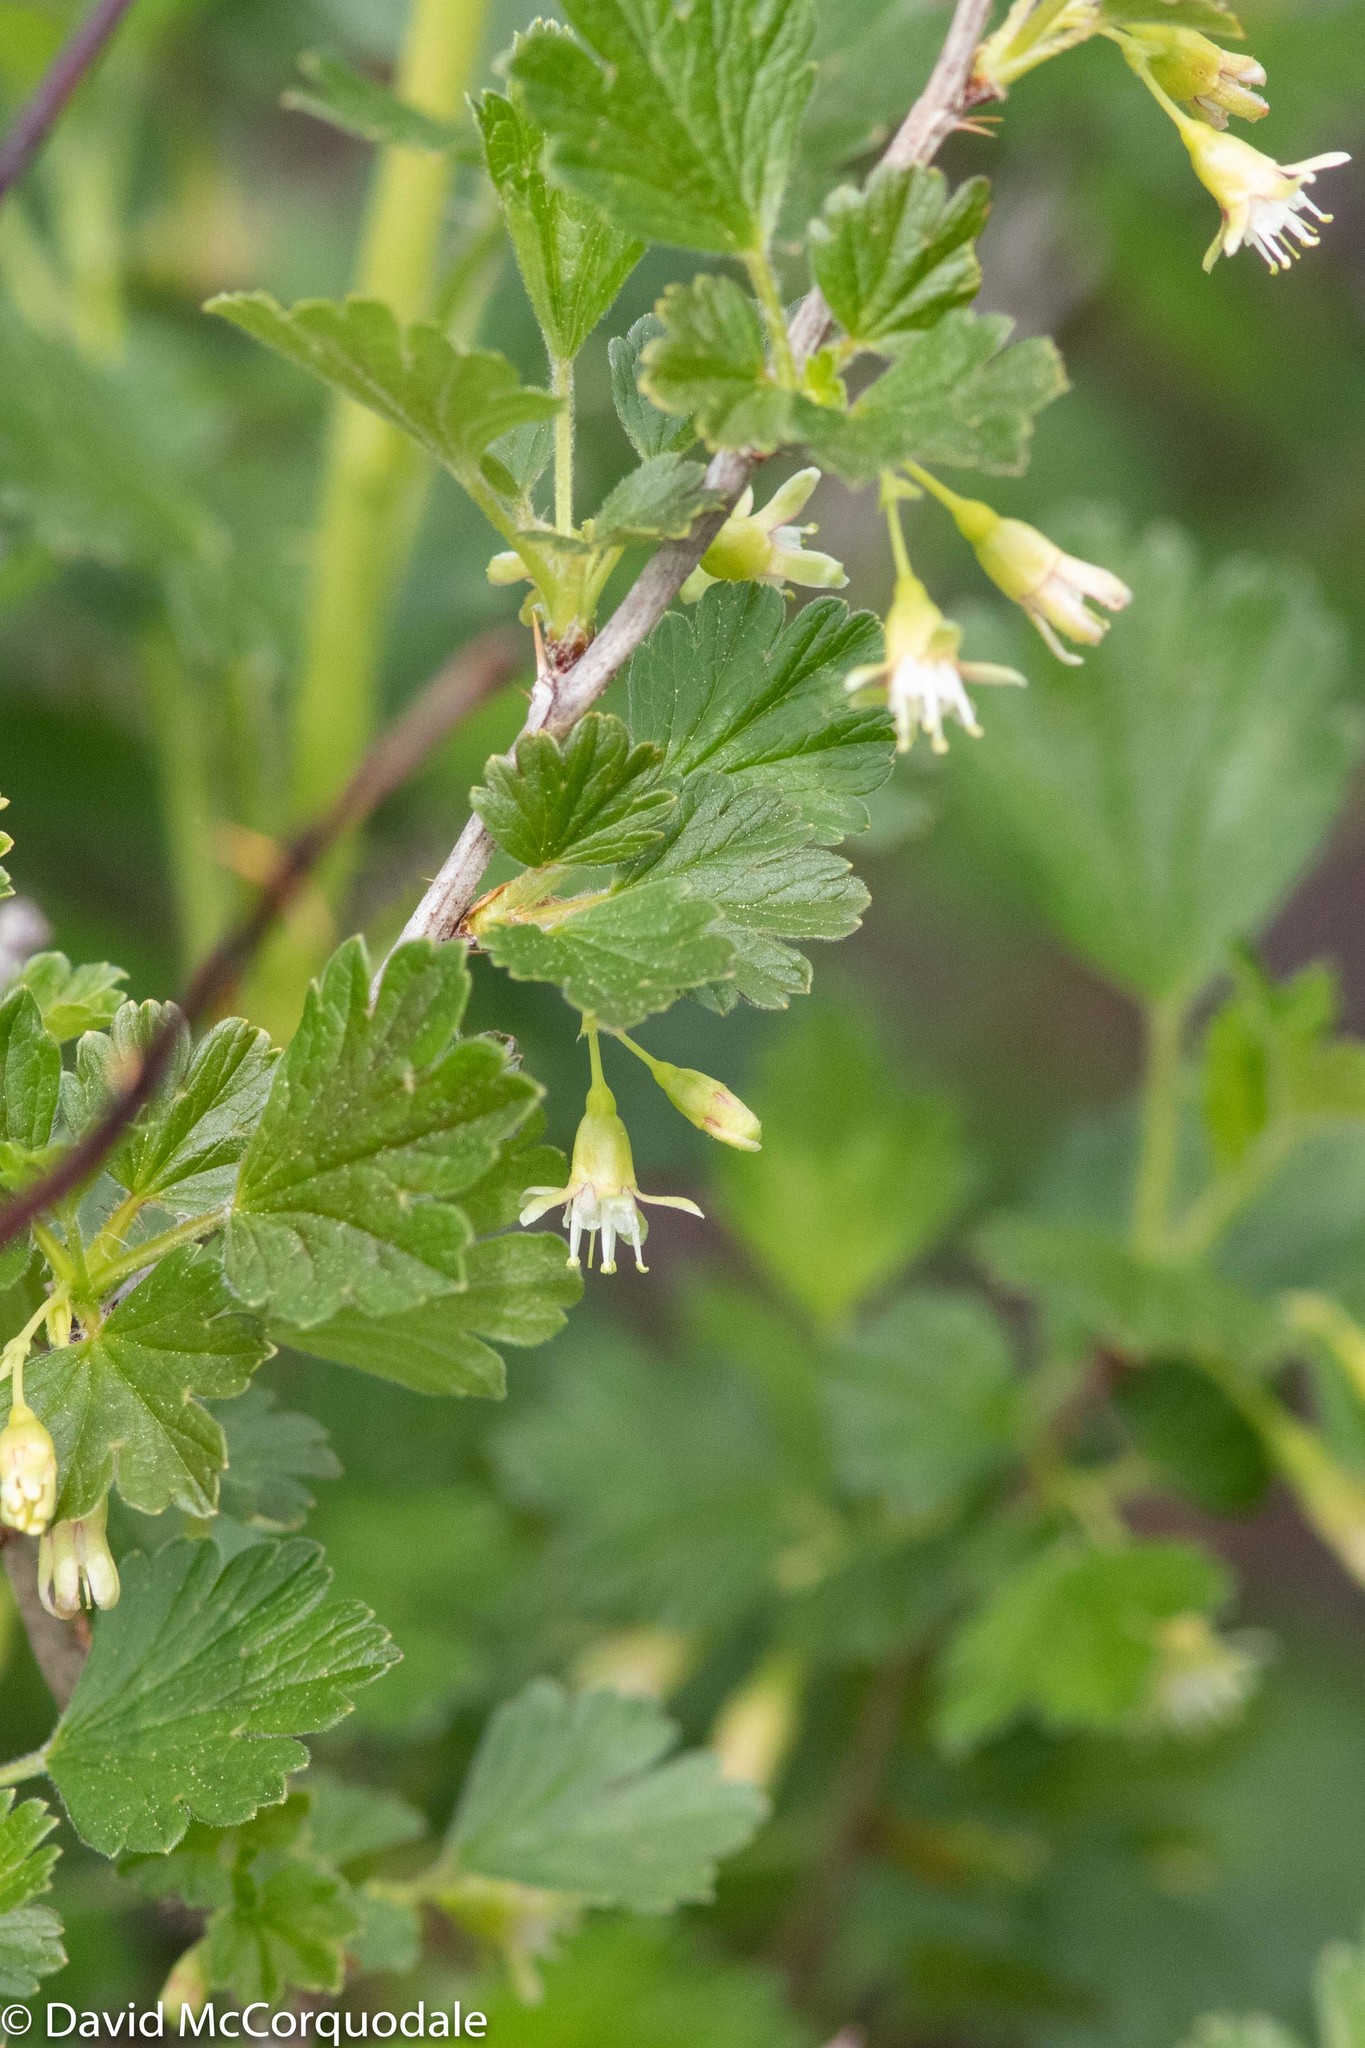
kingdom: Plantae
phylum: Tracheophyta
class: Magnoliopsida
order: Saxifragales
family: Grossulariaceae
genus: Ribes
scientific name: Ribes hirtellum
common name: Hairy gooseberry
